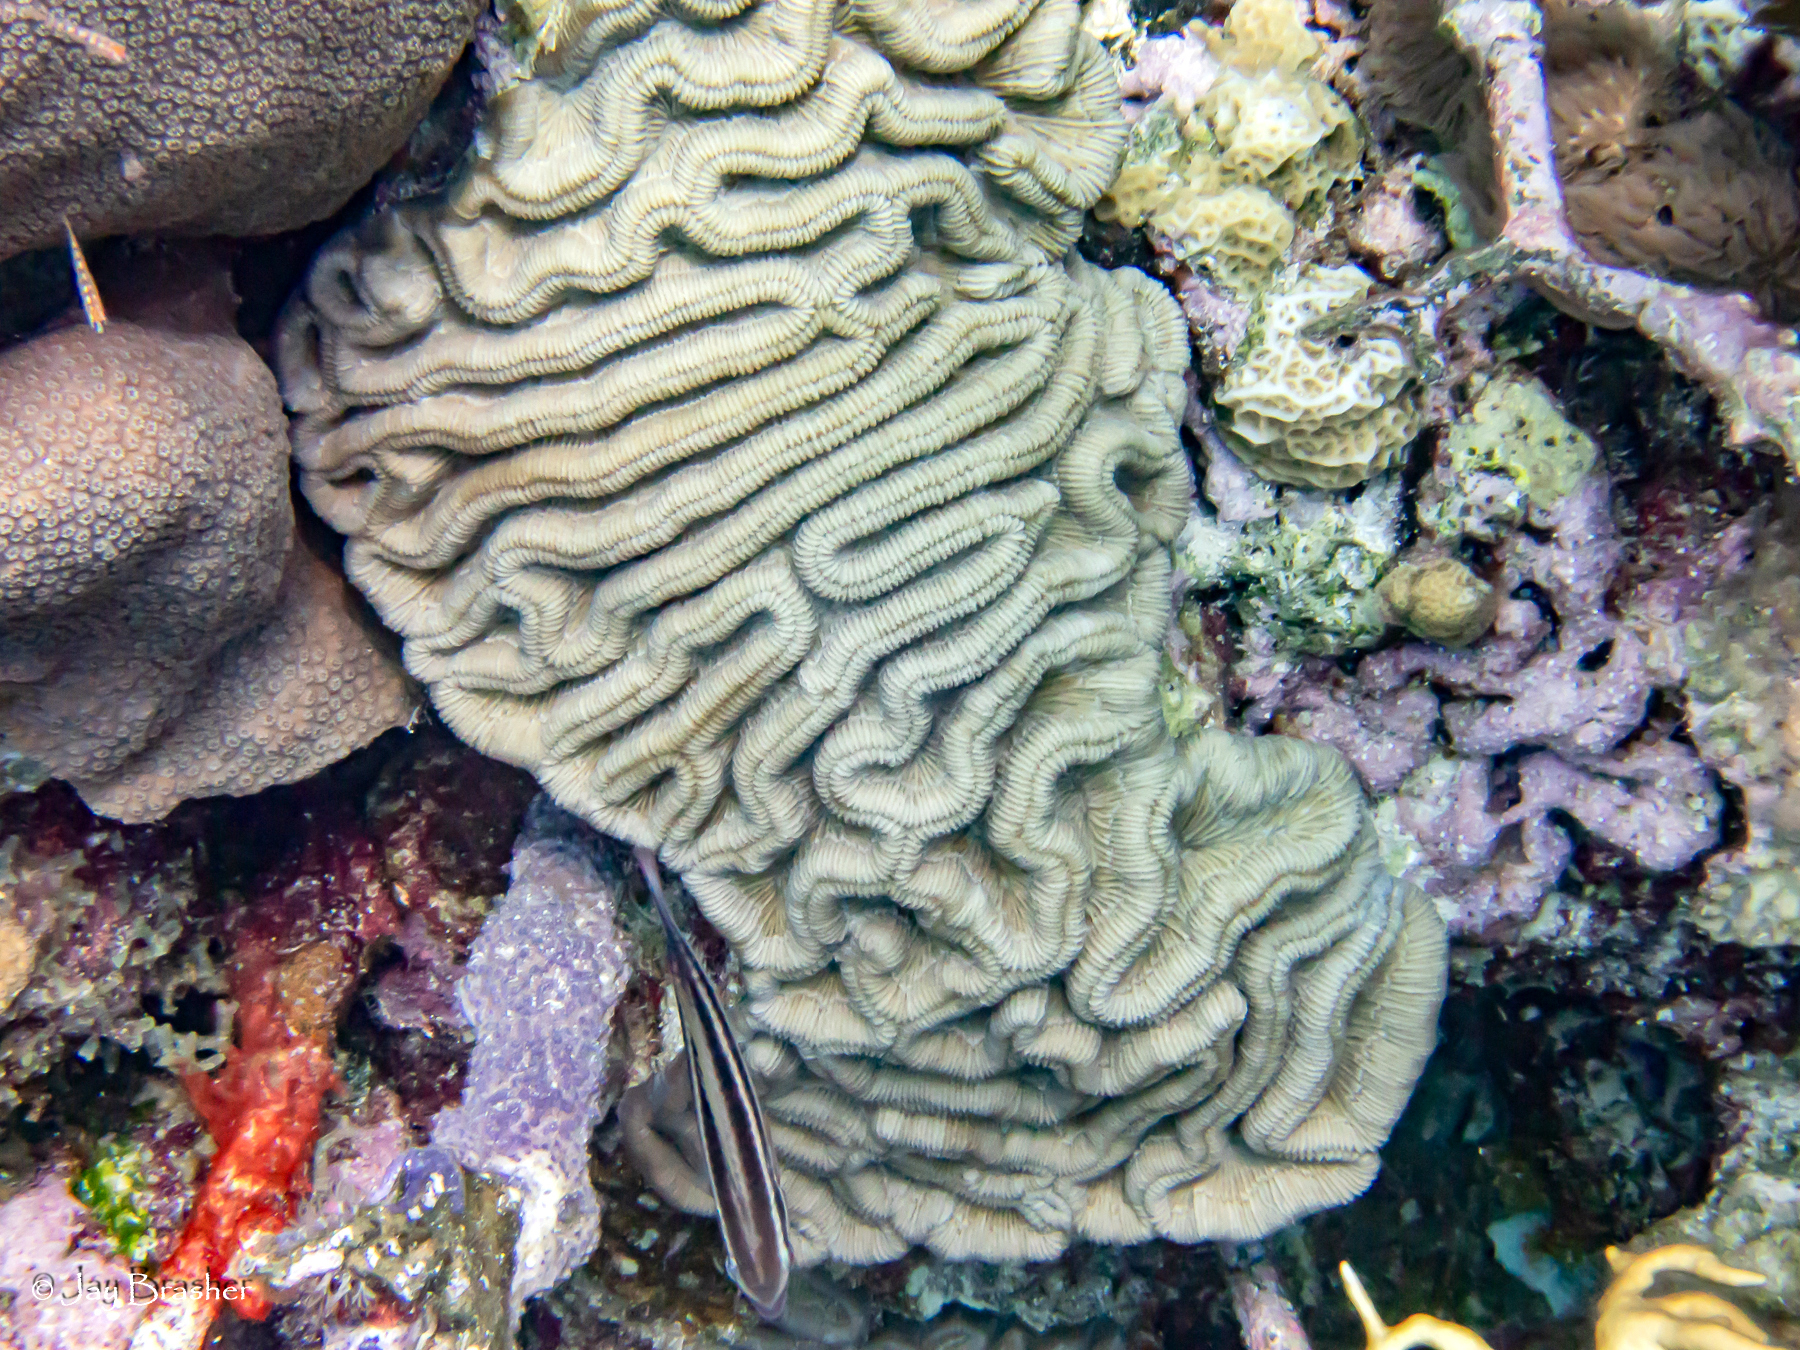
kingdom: Animalia
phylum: Cnidaria
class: Anthozoa
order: Scleractinia
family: Faviidae
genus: Colpophyllia
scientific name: Colpophyllia natans
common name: Boulder brain coral
